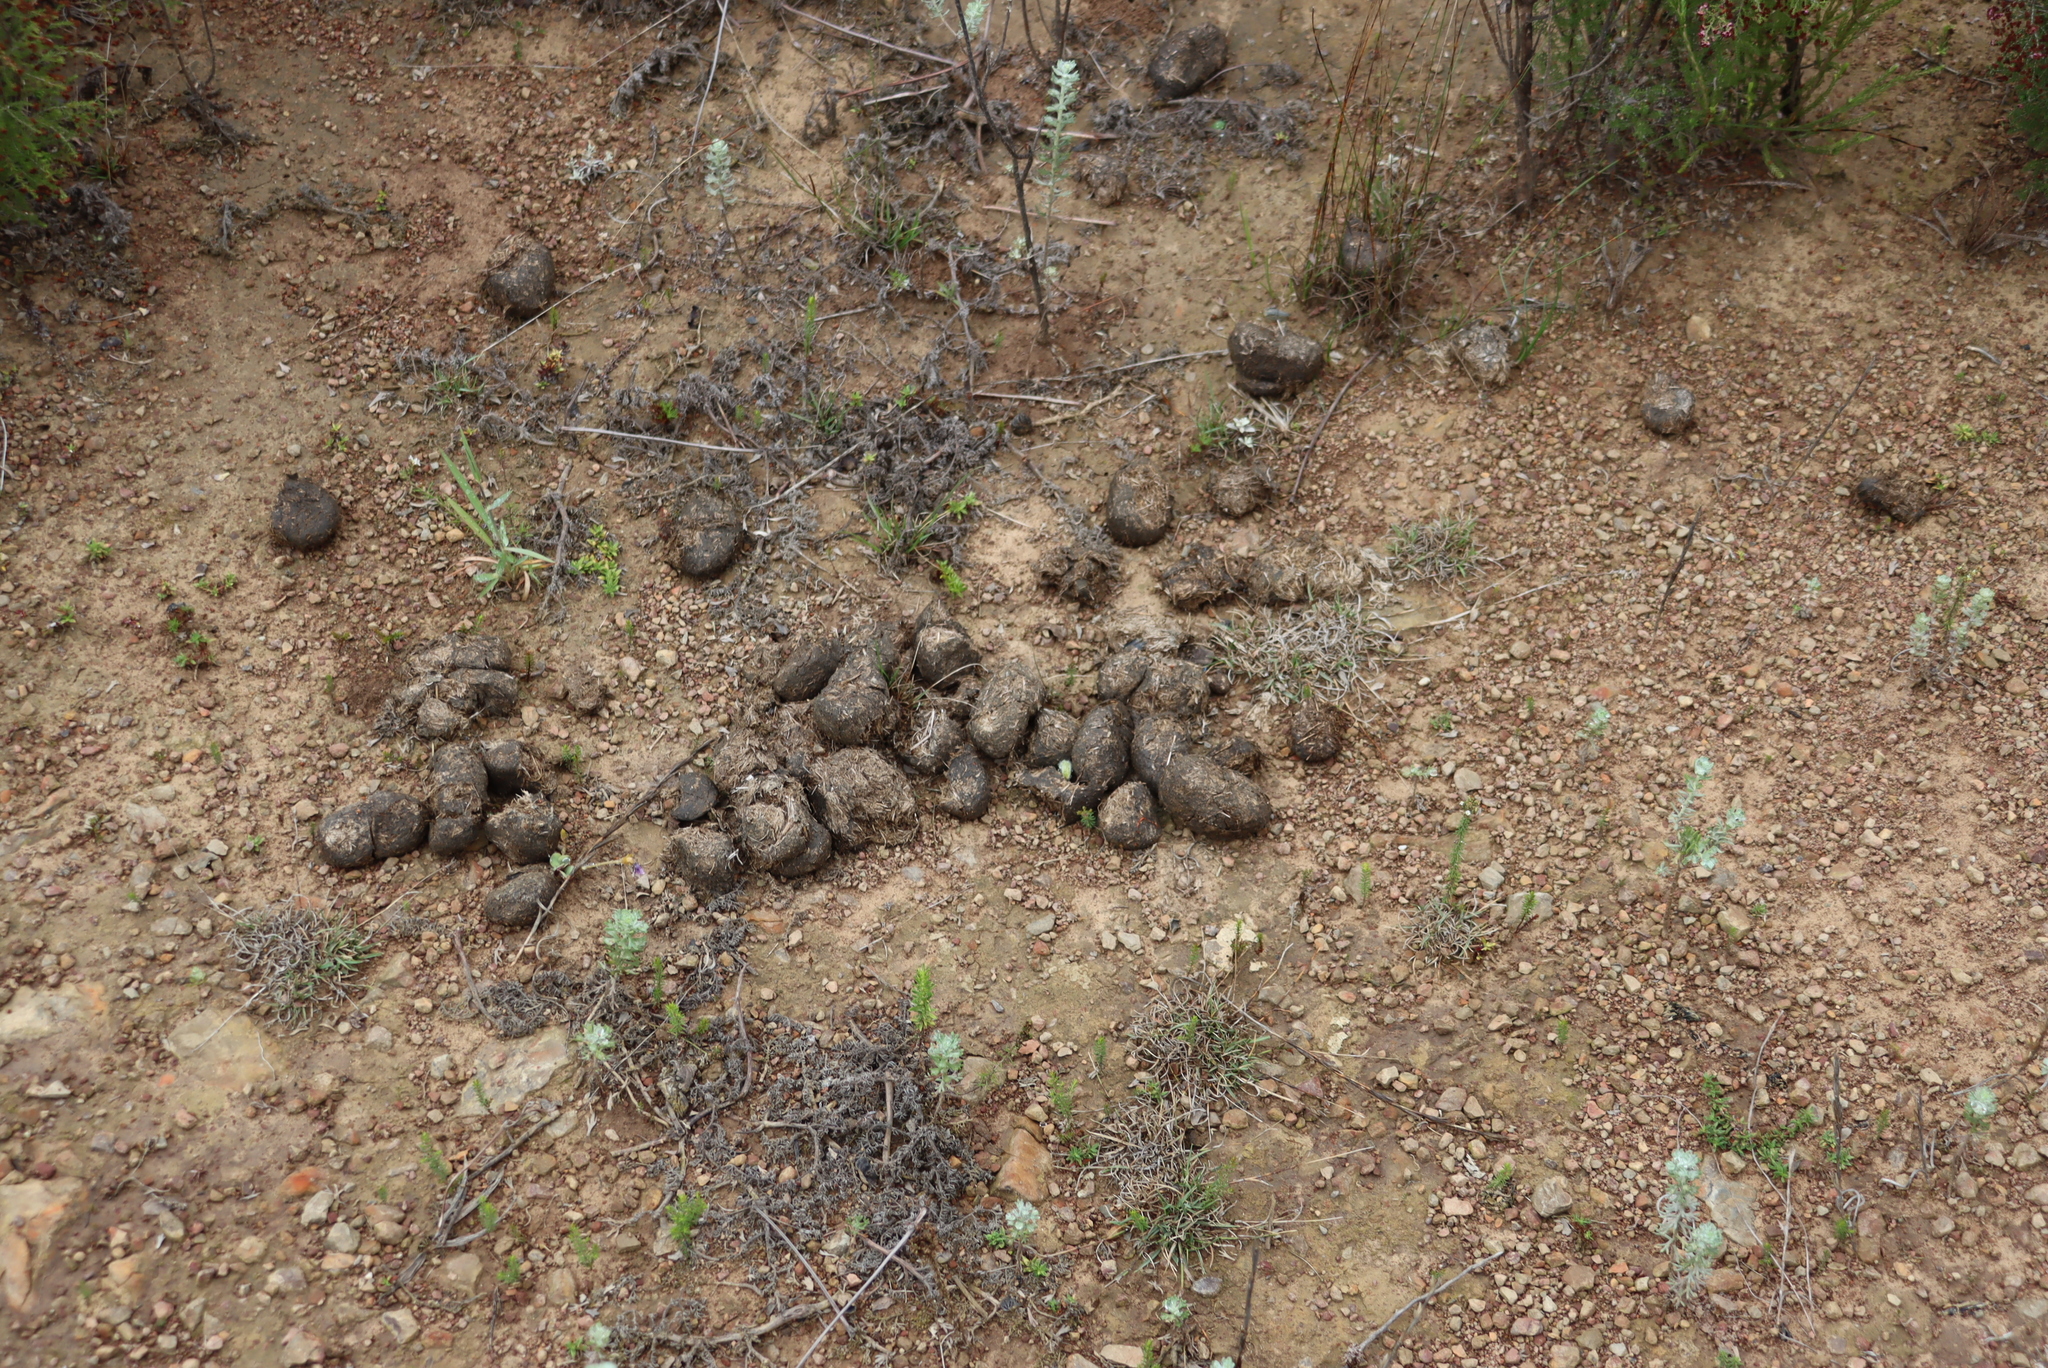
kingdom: Animalia
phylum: Chordata
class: Mammalia
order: Perissodactyla
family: Equidae
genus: Equus
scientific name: Equus caballus
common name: Horse
